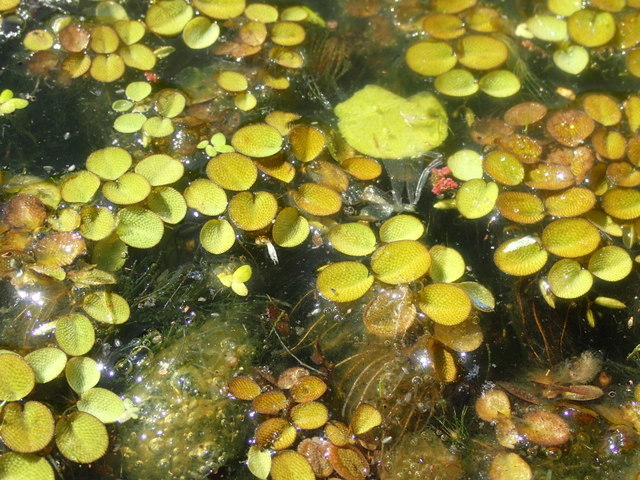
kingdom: Plantae
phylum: Tracheophyta
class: Polypodiopsida
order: Salviniales
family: Salviniaceae
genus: Salvinia
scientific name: Salvinia minima
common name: Water spangles
